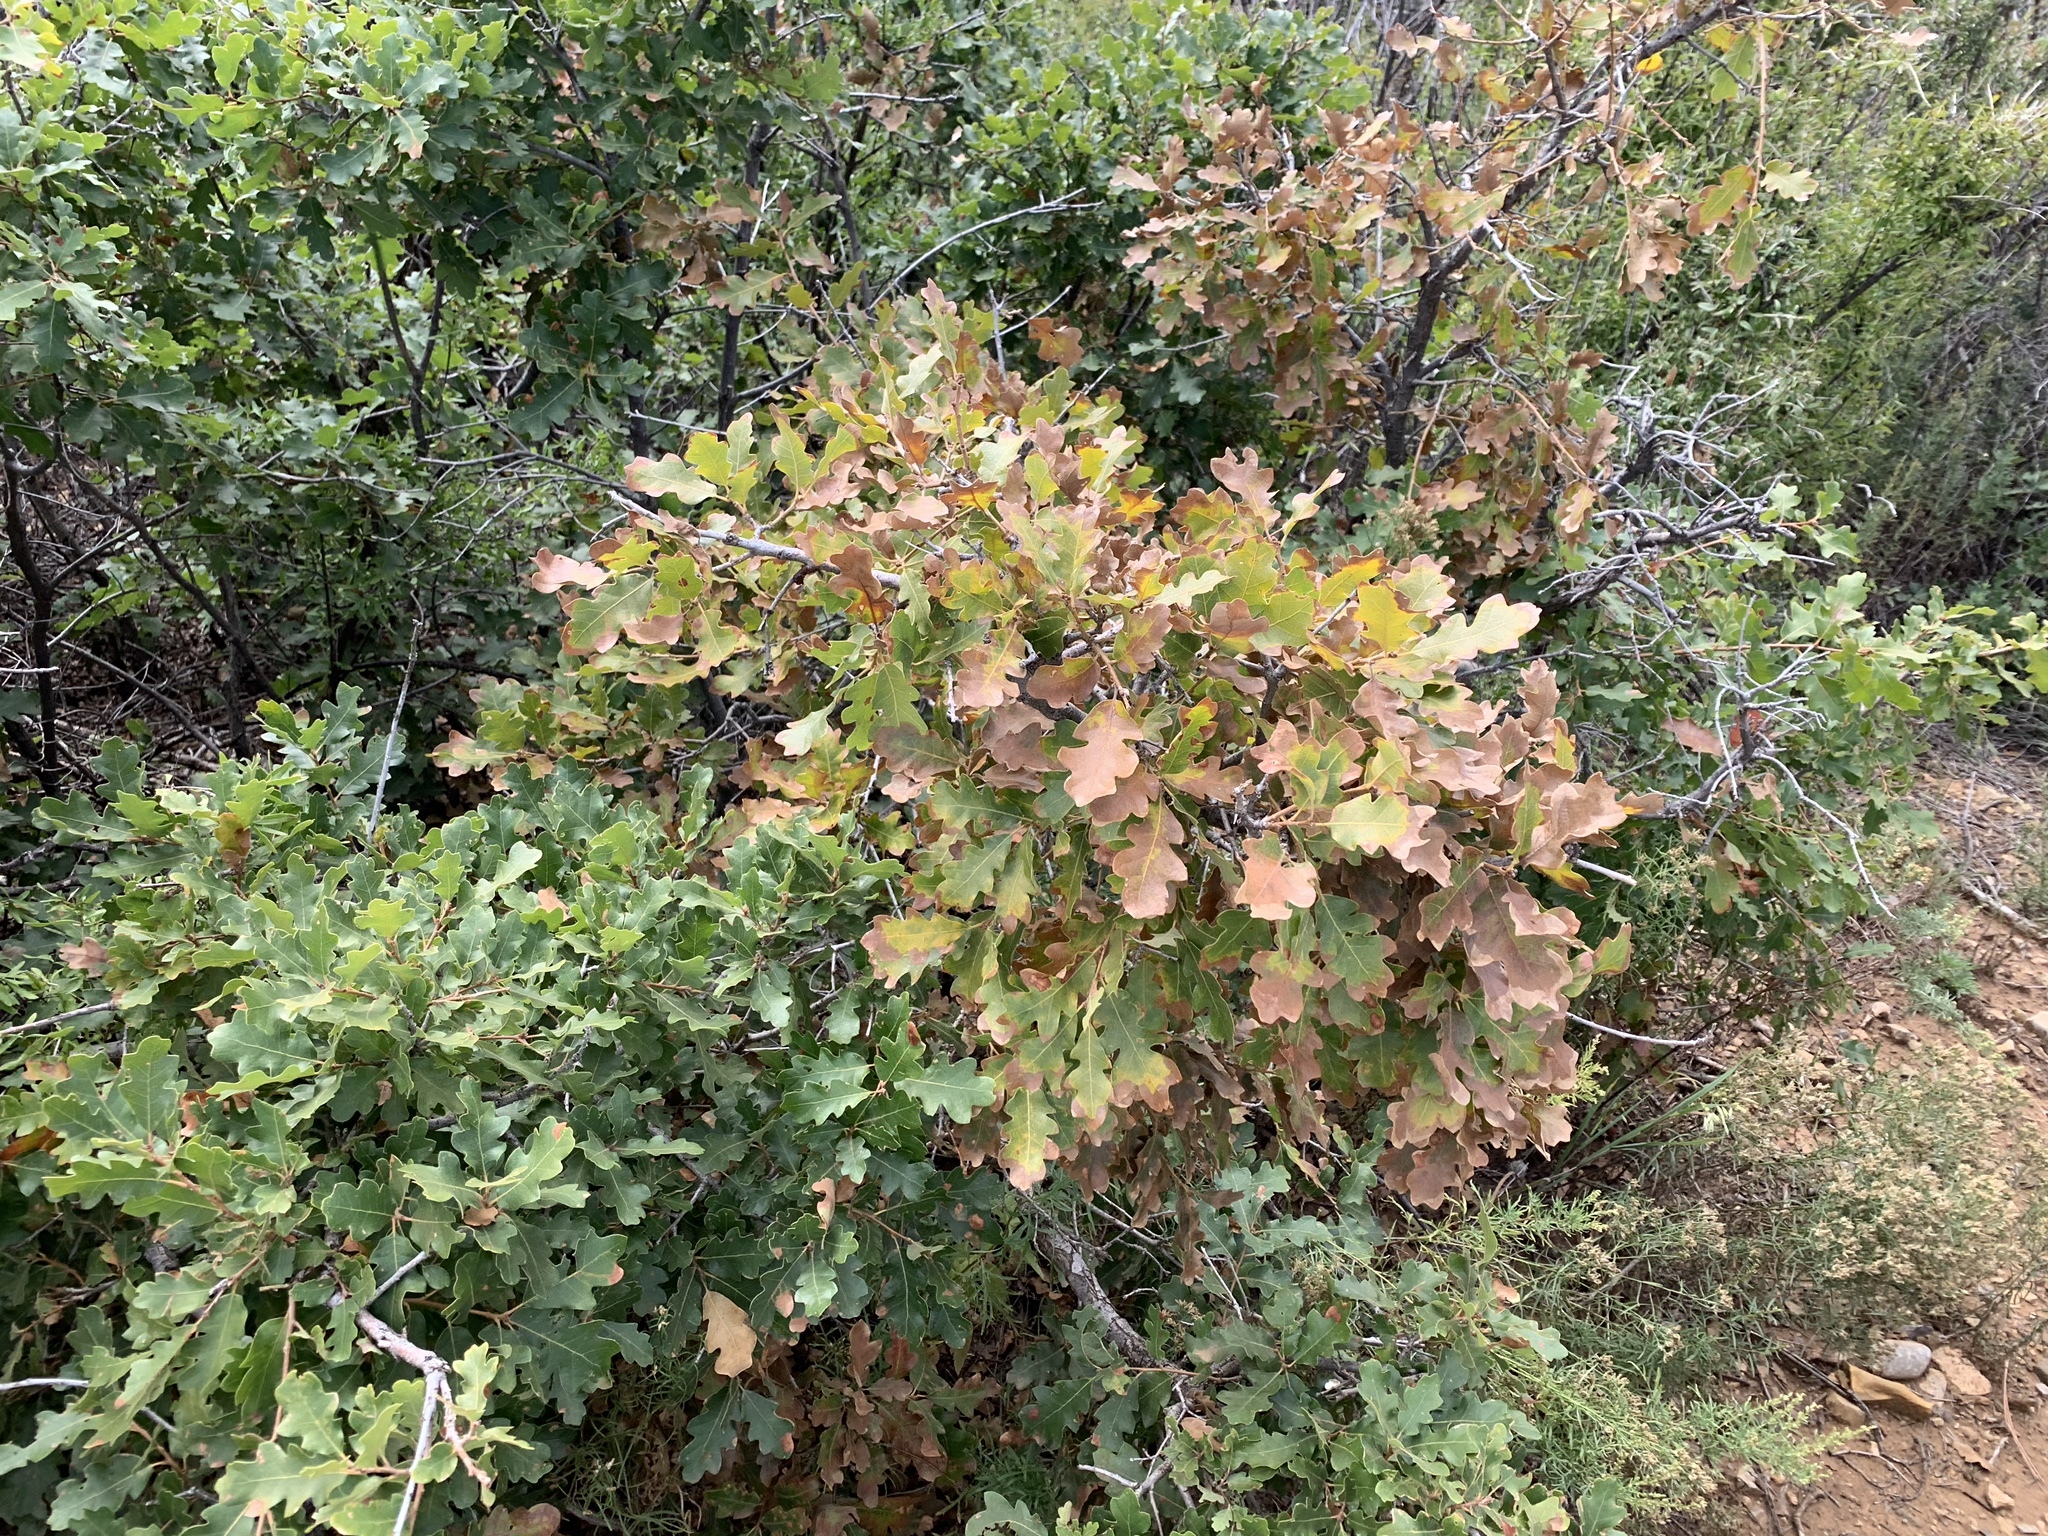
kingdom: Plantae
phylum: Tracheophyta
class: Magnoliopsida
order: Fagales
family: Fagaceae
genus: Quercus
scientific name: Quercus gambelii
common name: Gambel oak
